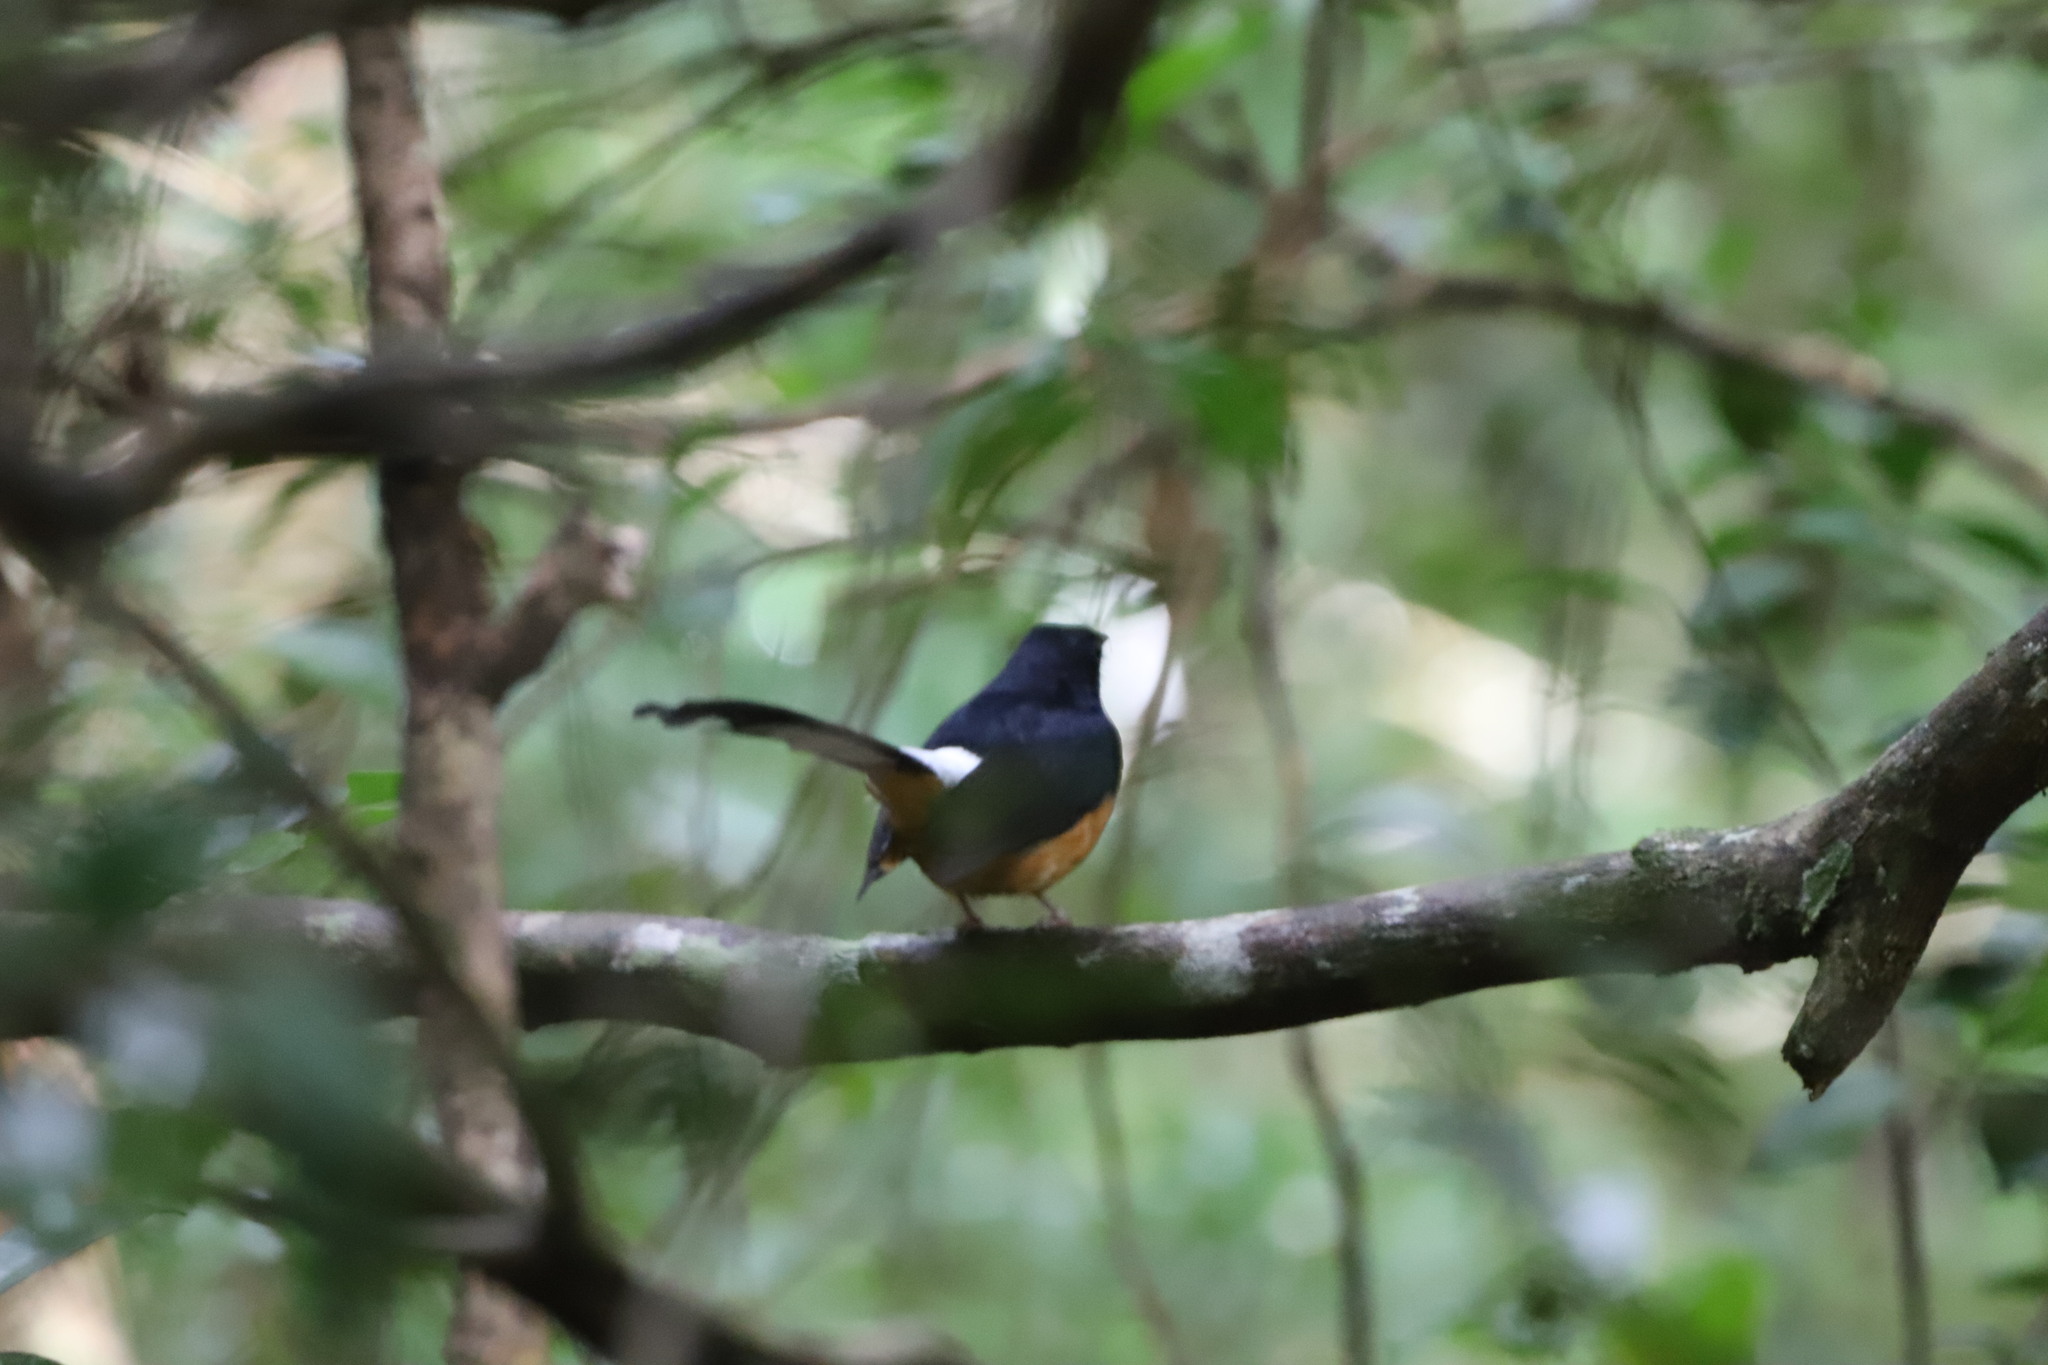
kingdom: Animalia
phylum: Chordata
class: Aves
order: Passeriformes
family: Muscicapidae
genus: Copsychus
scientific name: Copsychus malabaricus
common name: White-rumped shama
